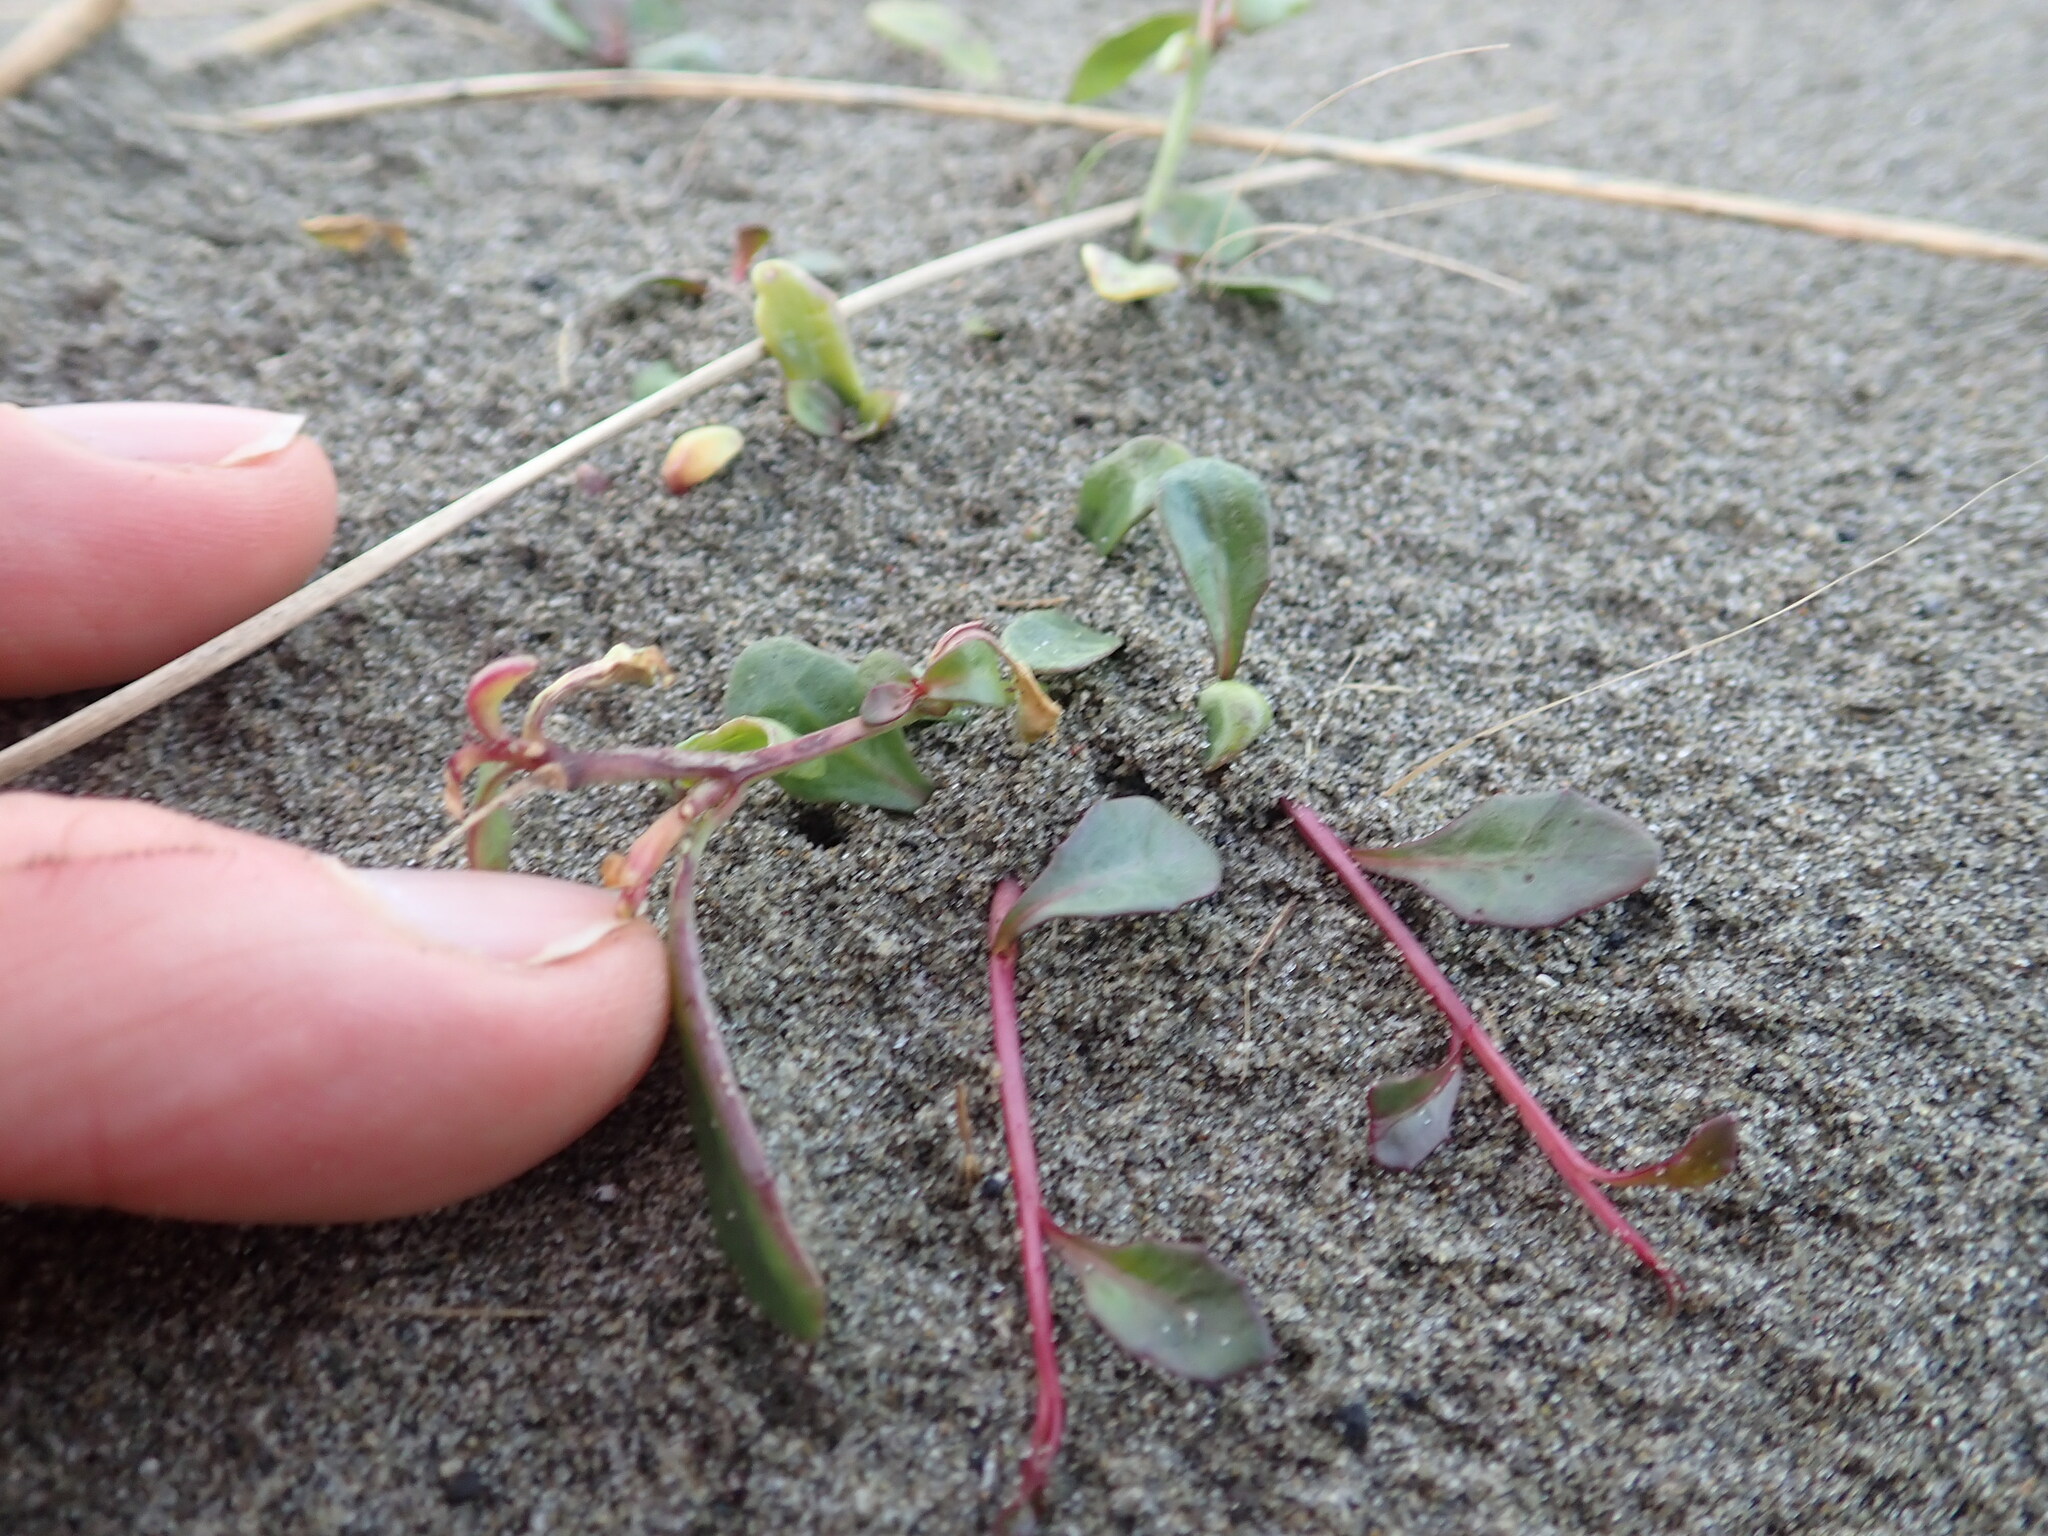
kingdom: Plantae
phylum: Tracheophyta
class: Magnoliopsida
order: Asterales
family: Campanulaceae
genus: Lobelia
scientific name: Lobelia anceps
